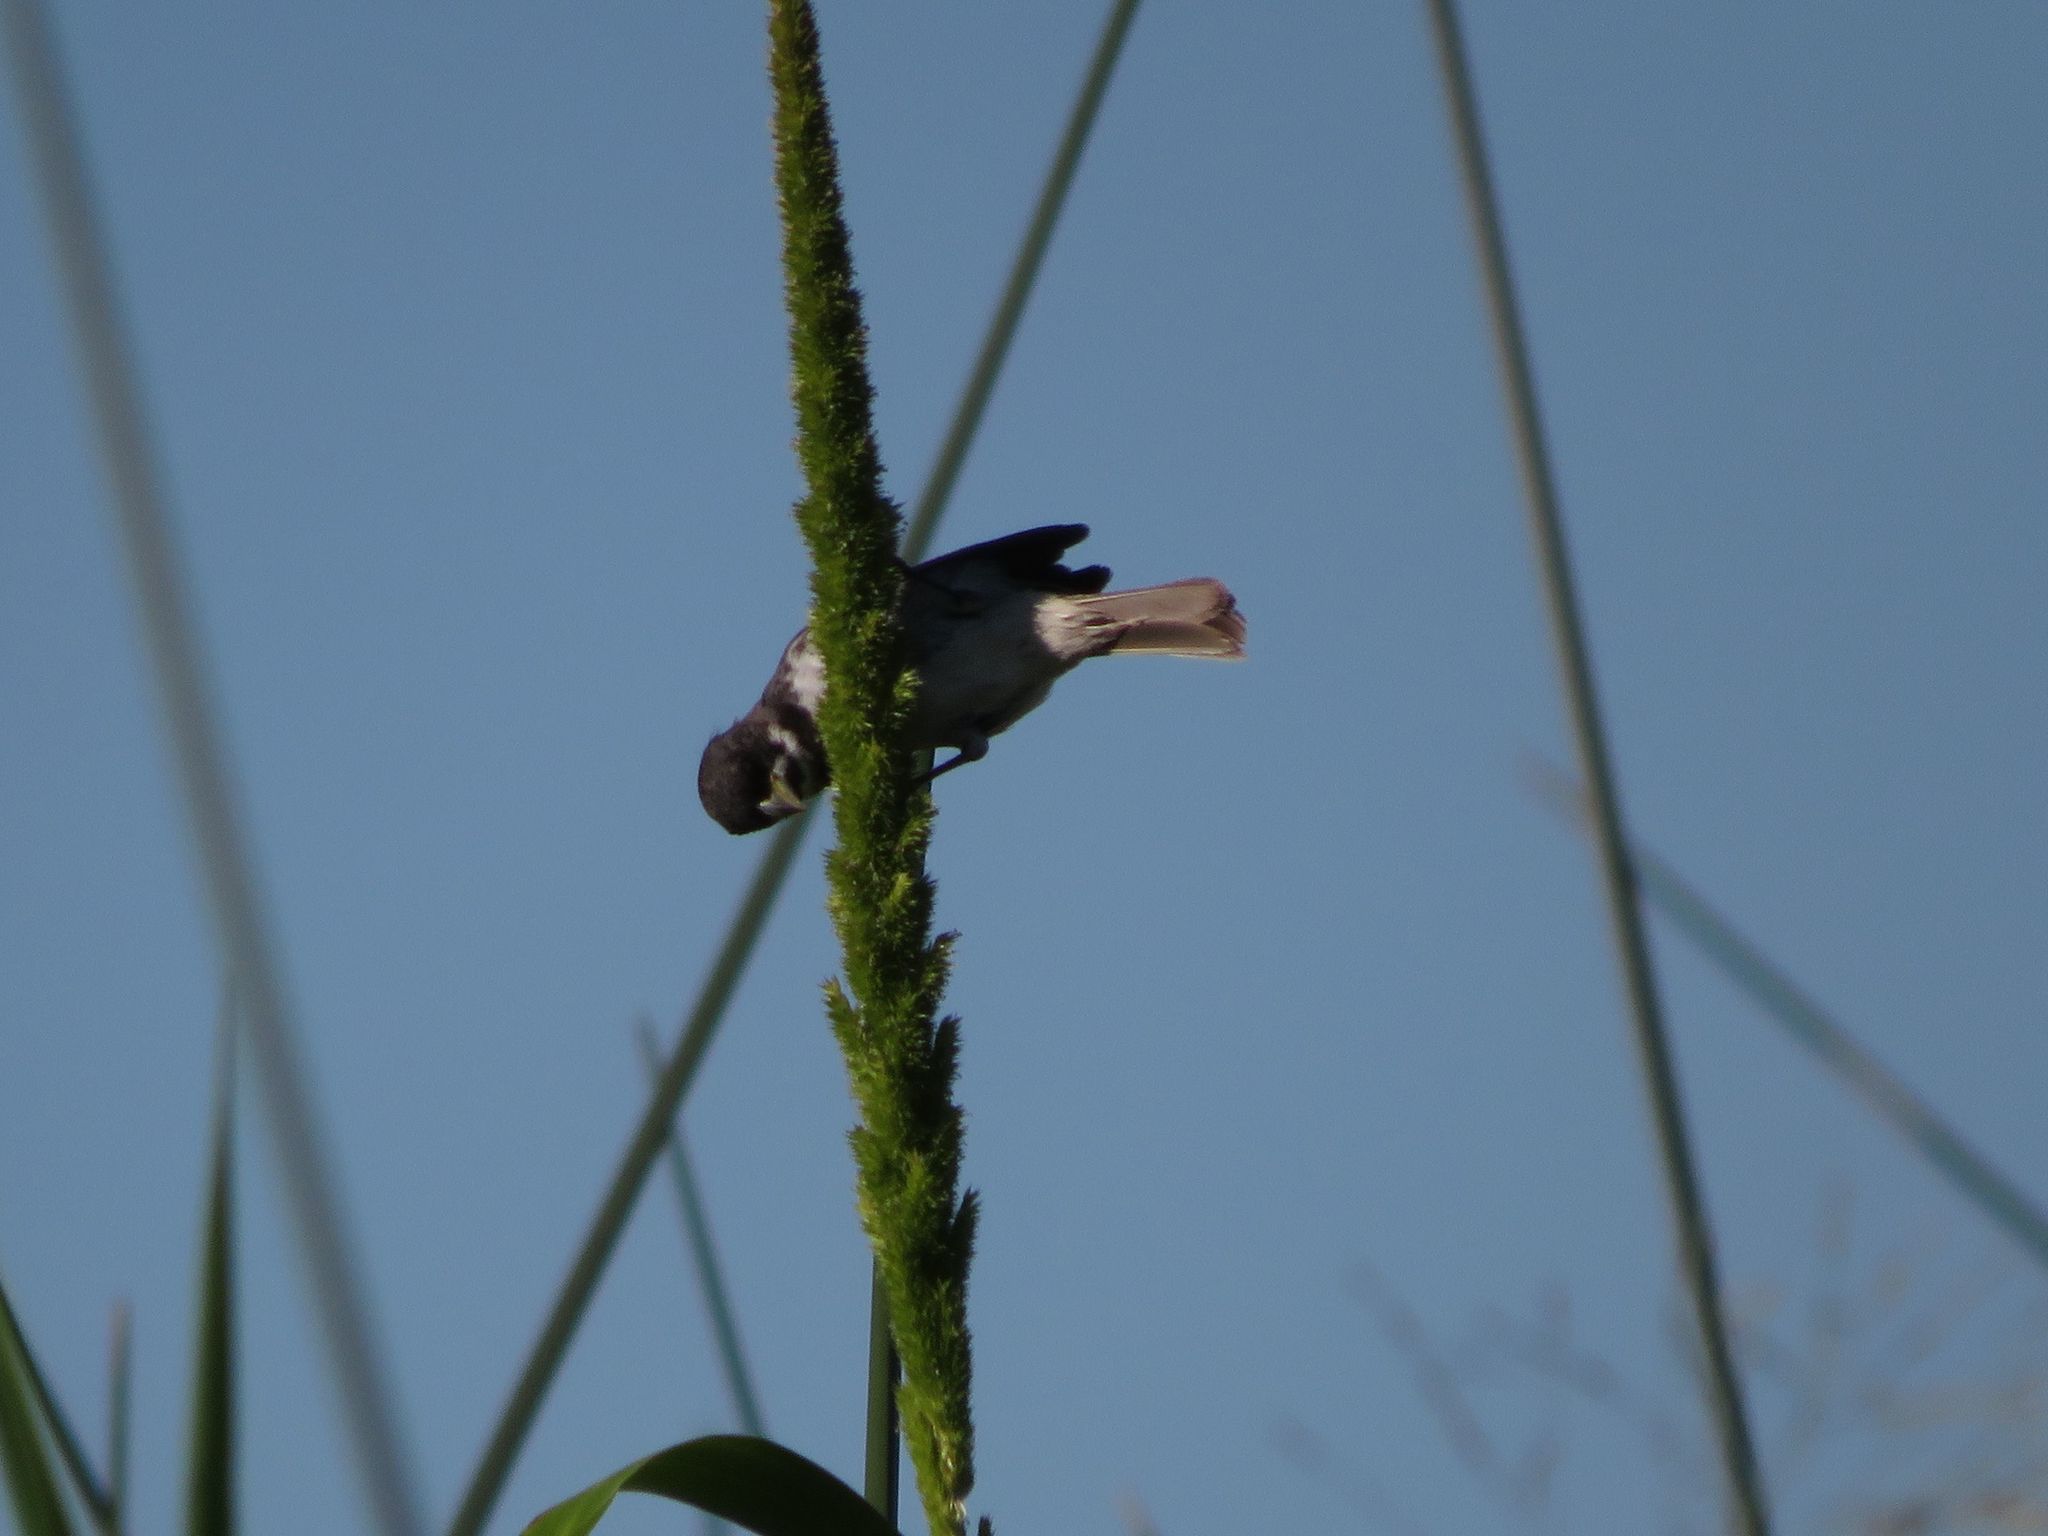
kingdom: Animalia
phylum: Chordata
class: Aves
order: Passeriformes
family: Thraupidae
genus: Sporophila
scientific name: Sporophila caerulescens
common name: Double-collared seedeater
